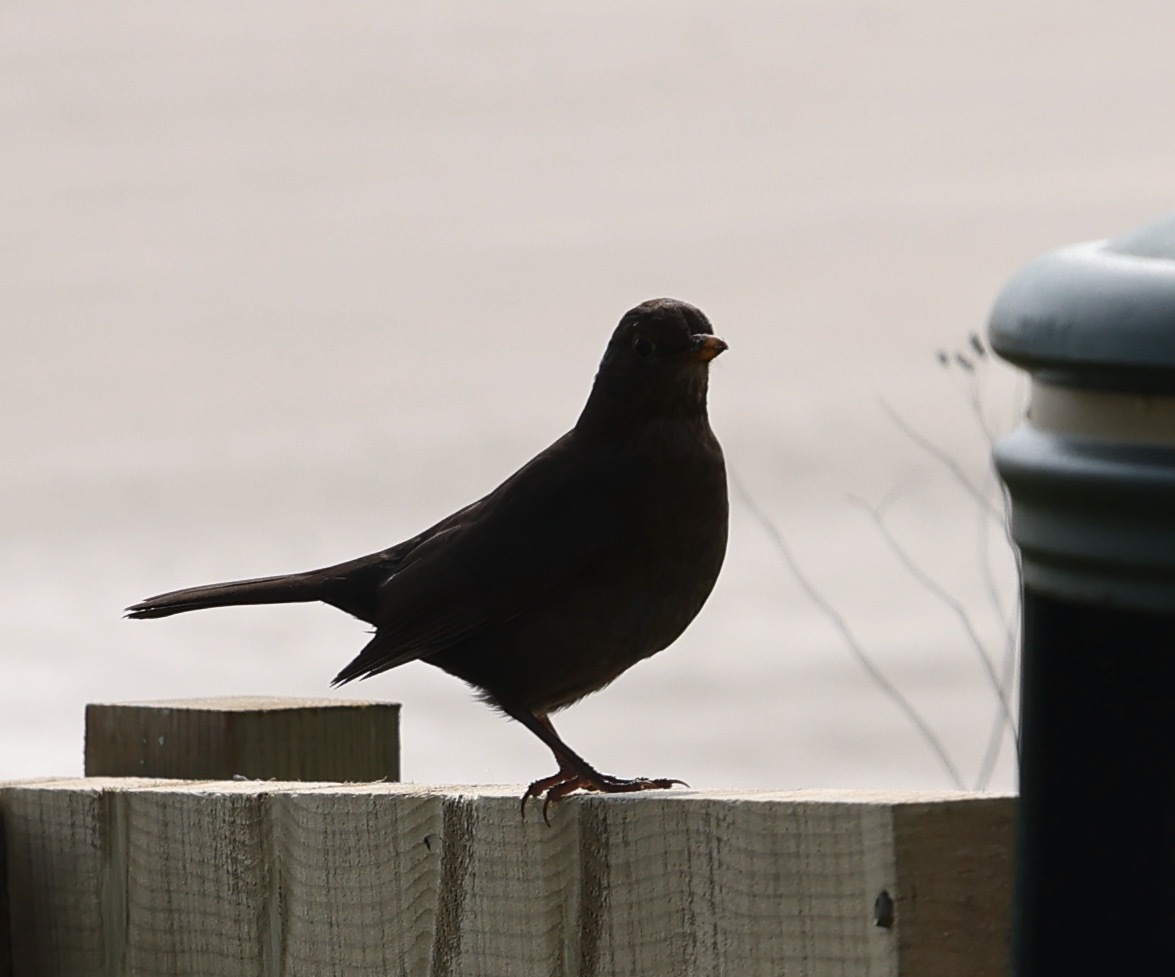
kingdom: Animalia
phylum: Chordata
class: Aves
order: Passeriformes
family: Turdidae
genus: Turdus
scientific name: Turdus merula
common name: Common blackbird
